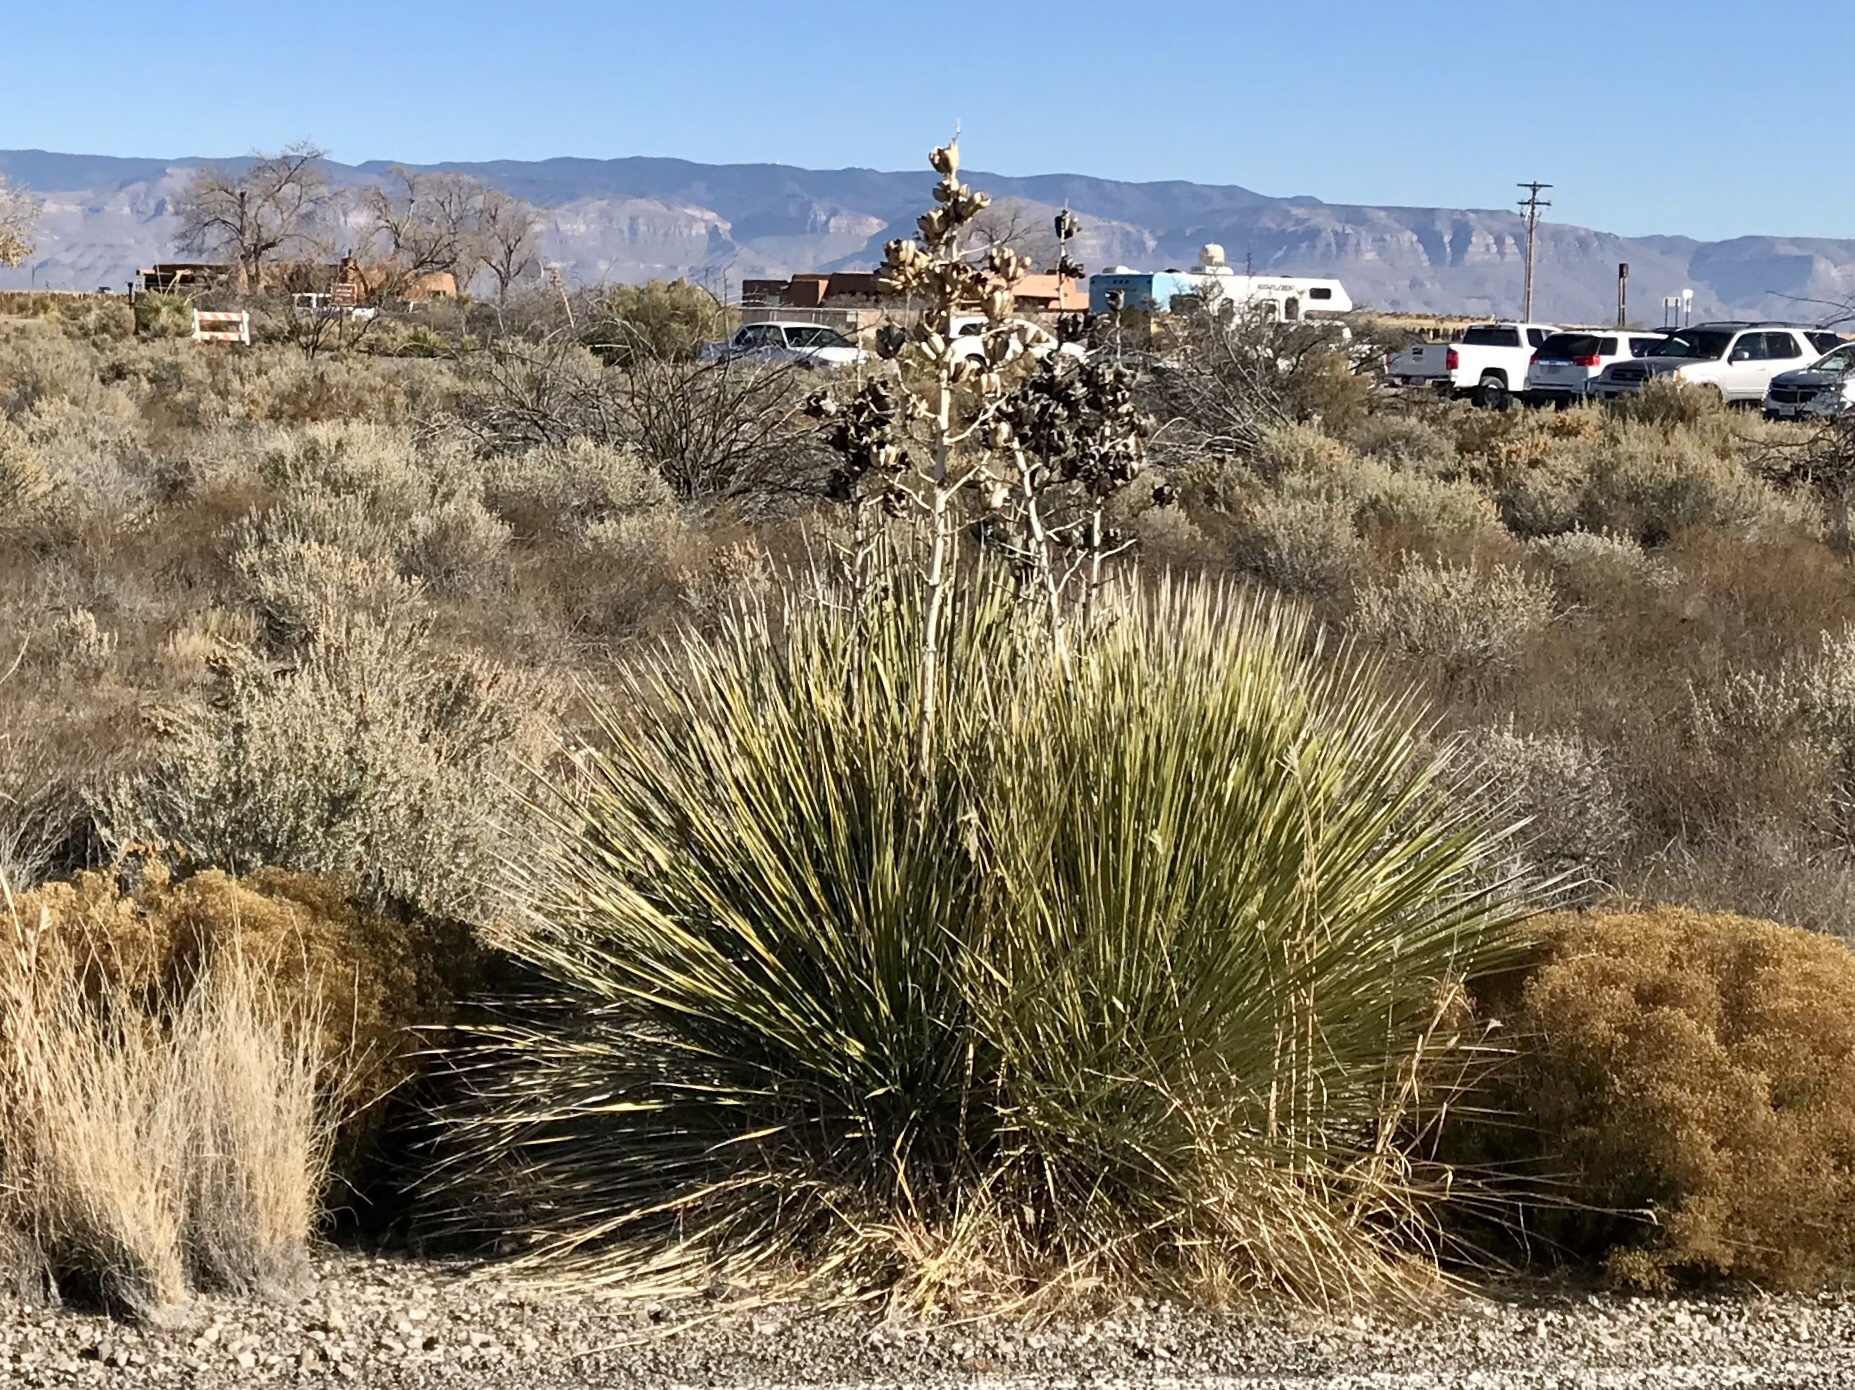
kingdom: Plantae
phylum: Tracheophyta
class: Liliopsida
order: Asparagales
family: Asparagaceae
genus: Yucca
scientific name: Yucca elata
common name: Palmella
